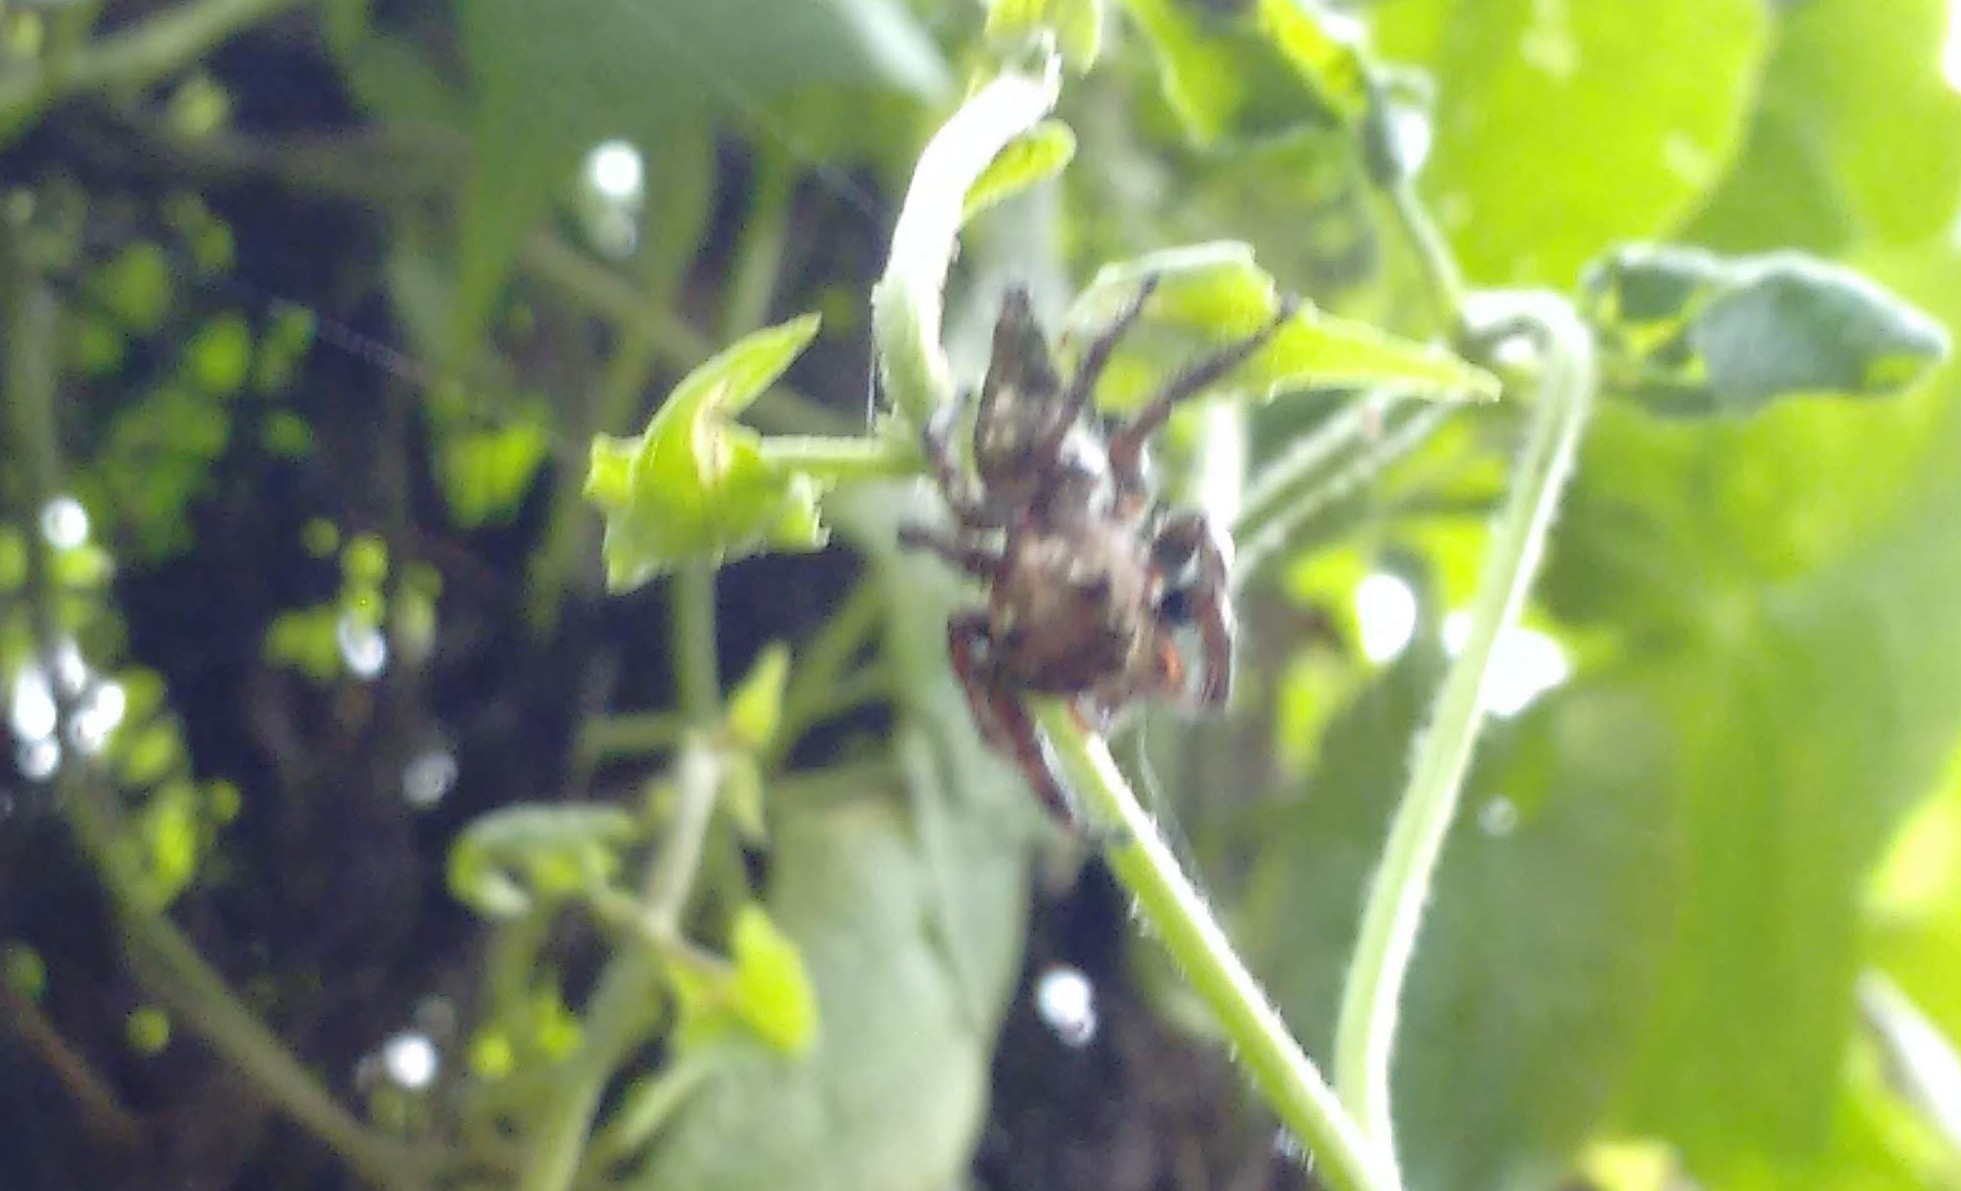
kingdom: Animalia
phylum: Arthropoda
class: Arachnida
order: Araneae
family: Salticidae
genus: Hyllus
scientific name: Hyllus semicupreus
